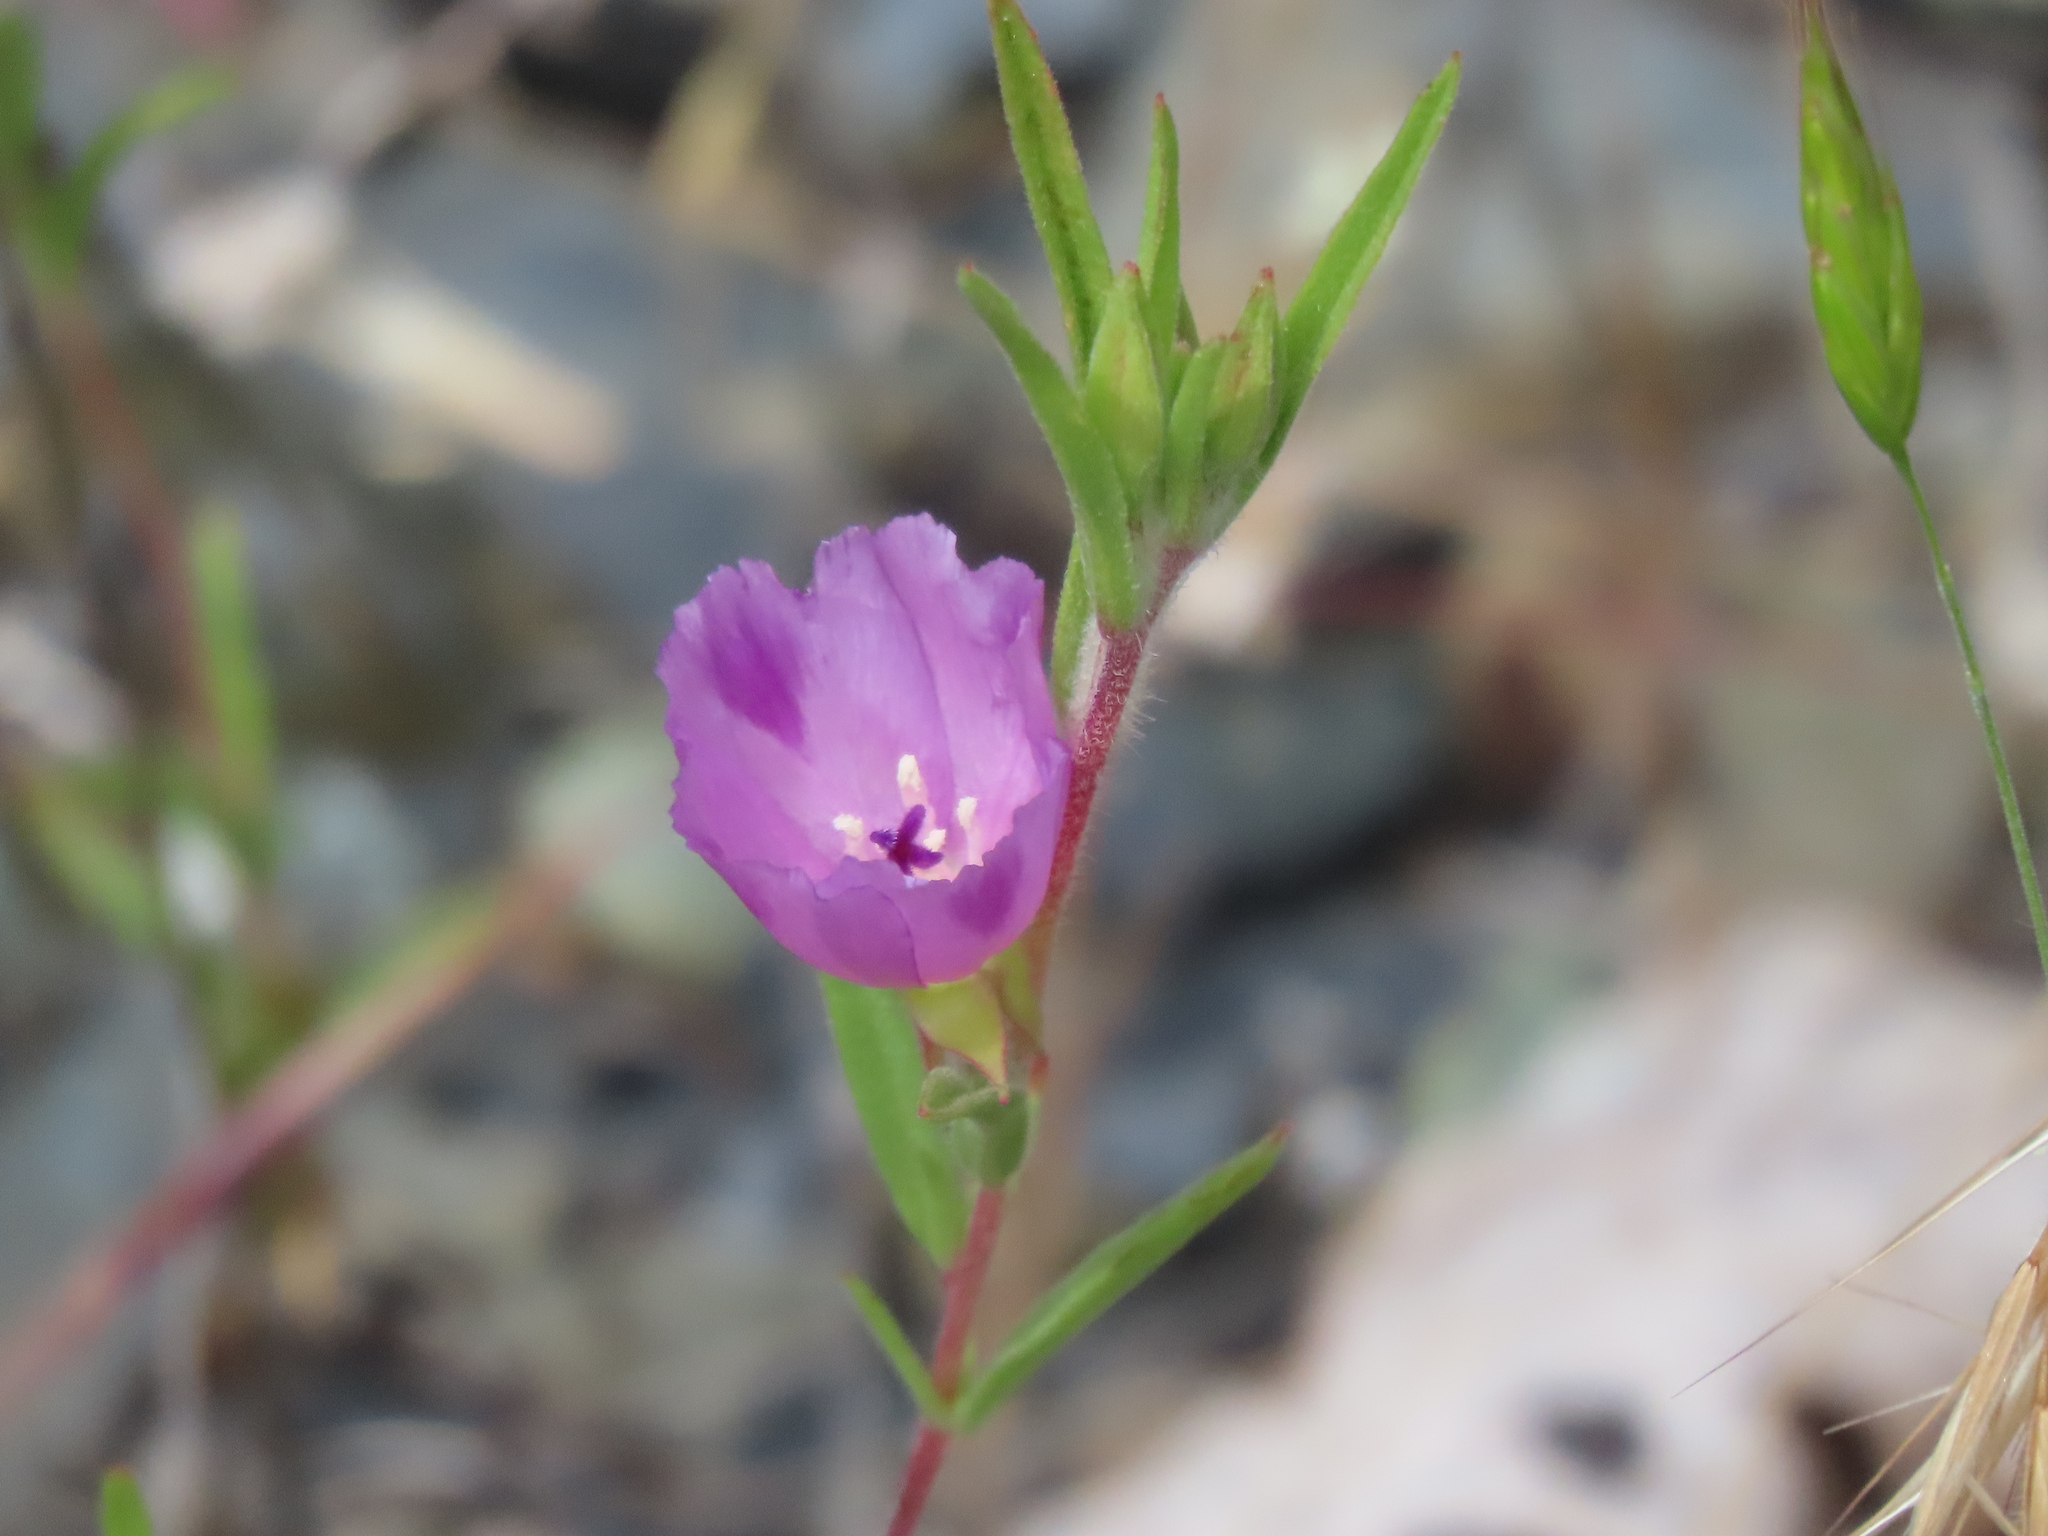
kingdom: Plantae
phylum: Tracheophyta
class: Magnoliopsida
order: Myrtales
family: Onagraceae
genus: Clarkia
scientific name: Clarkia purpurea
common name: Purple clarkia
